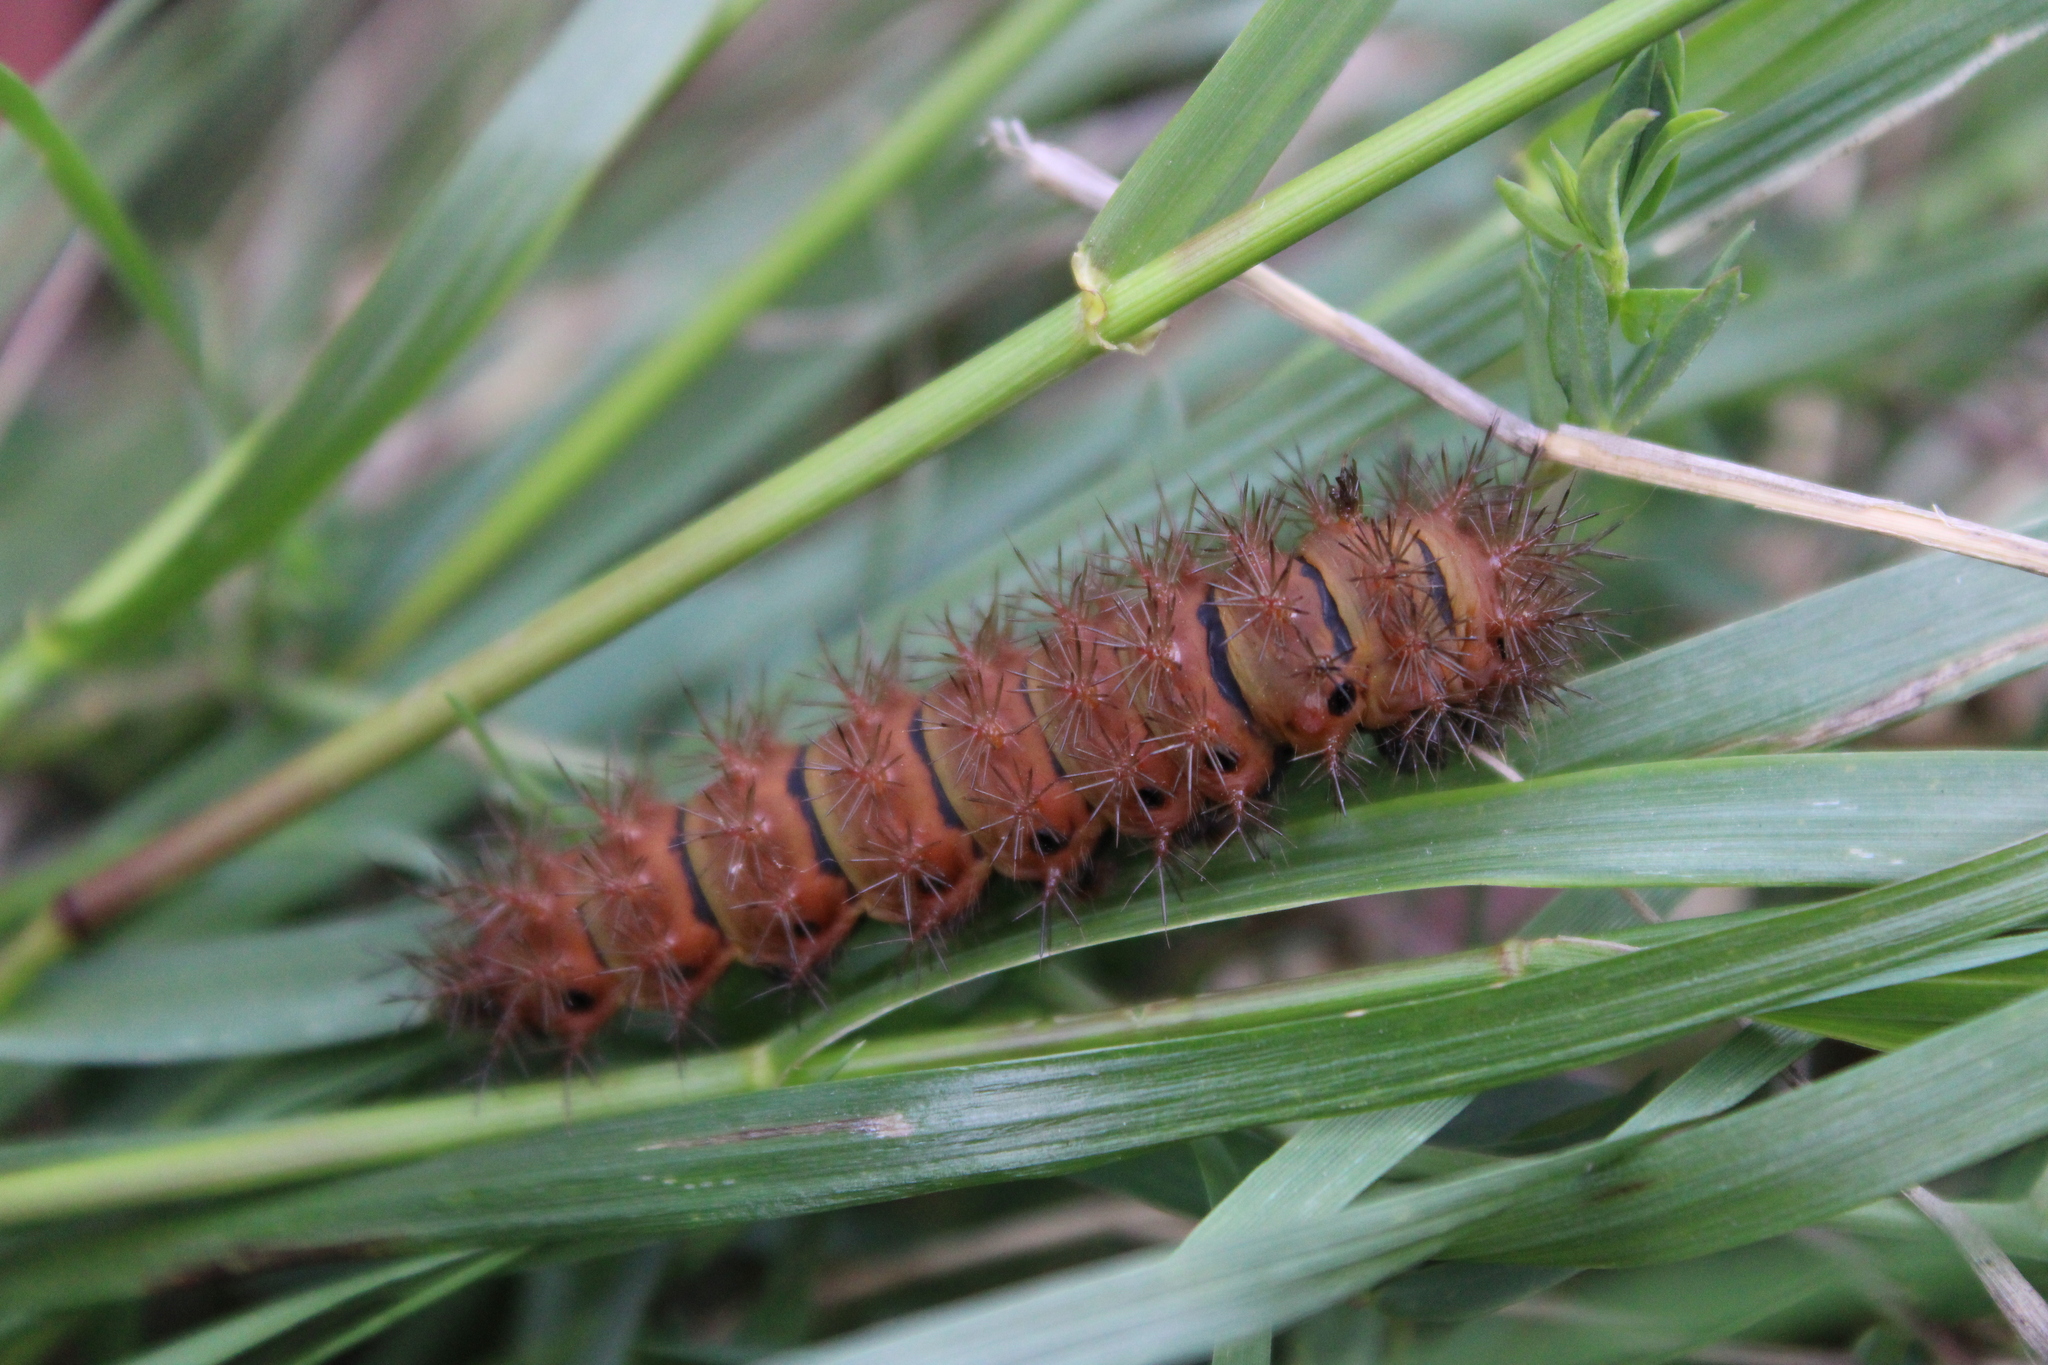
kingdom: Animalia
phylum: Arthropoda
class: Insecta
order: Lepidoptera
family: Saturniidae
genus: Ithomisa
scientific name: Ithomisa kinkelini
